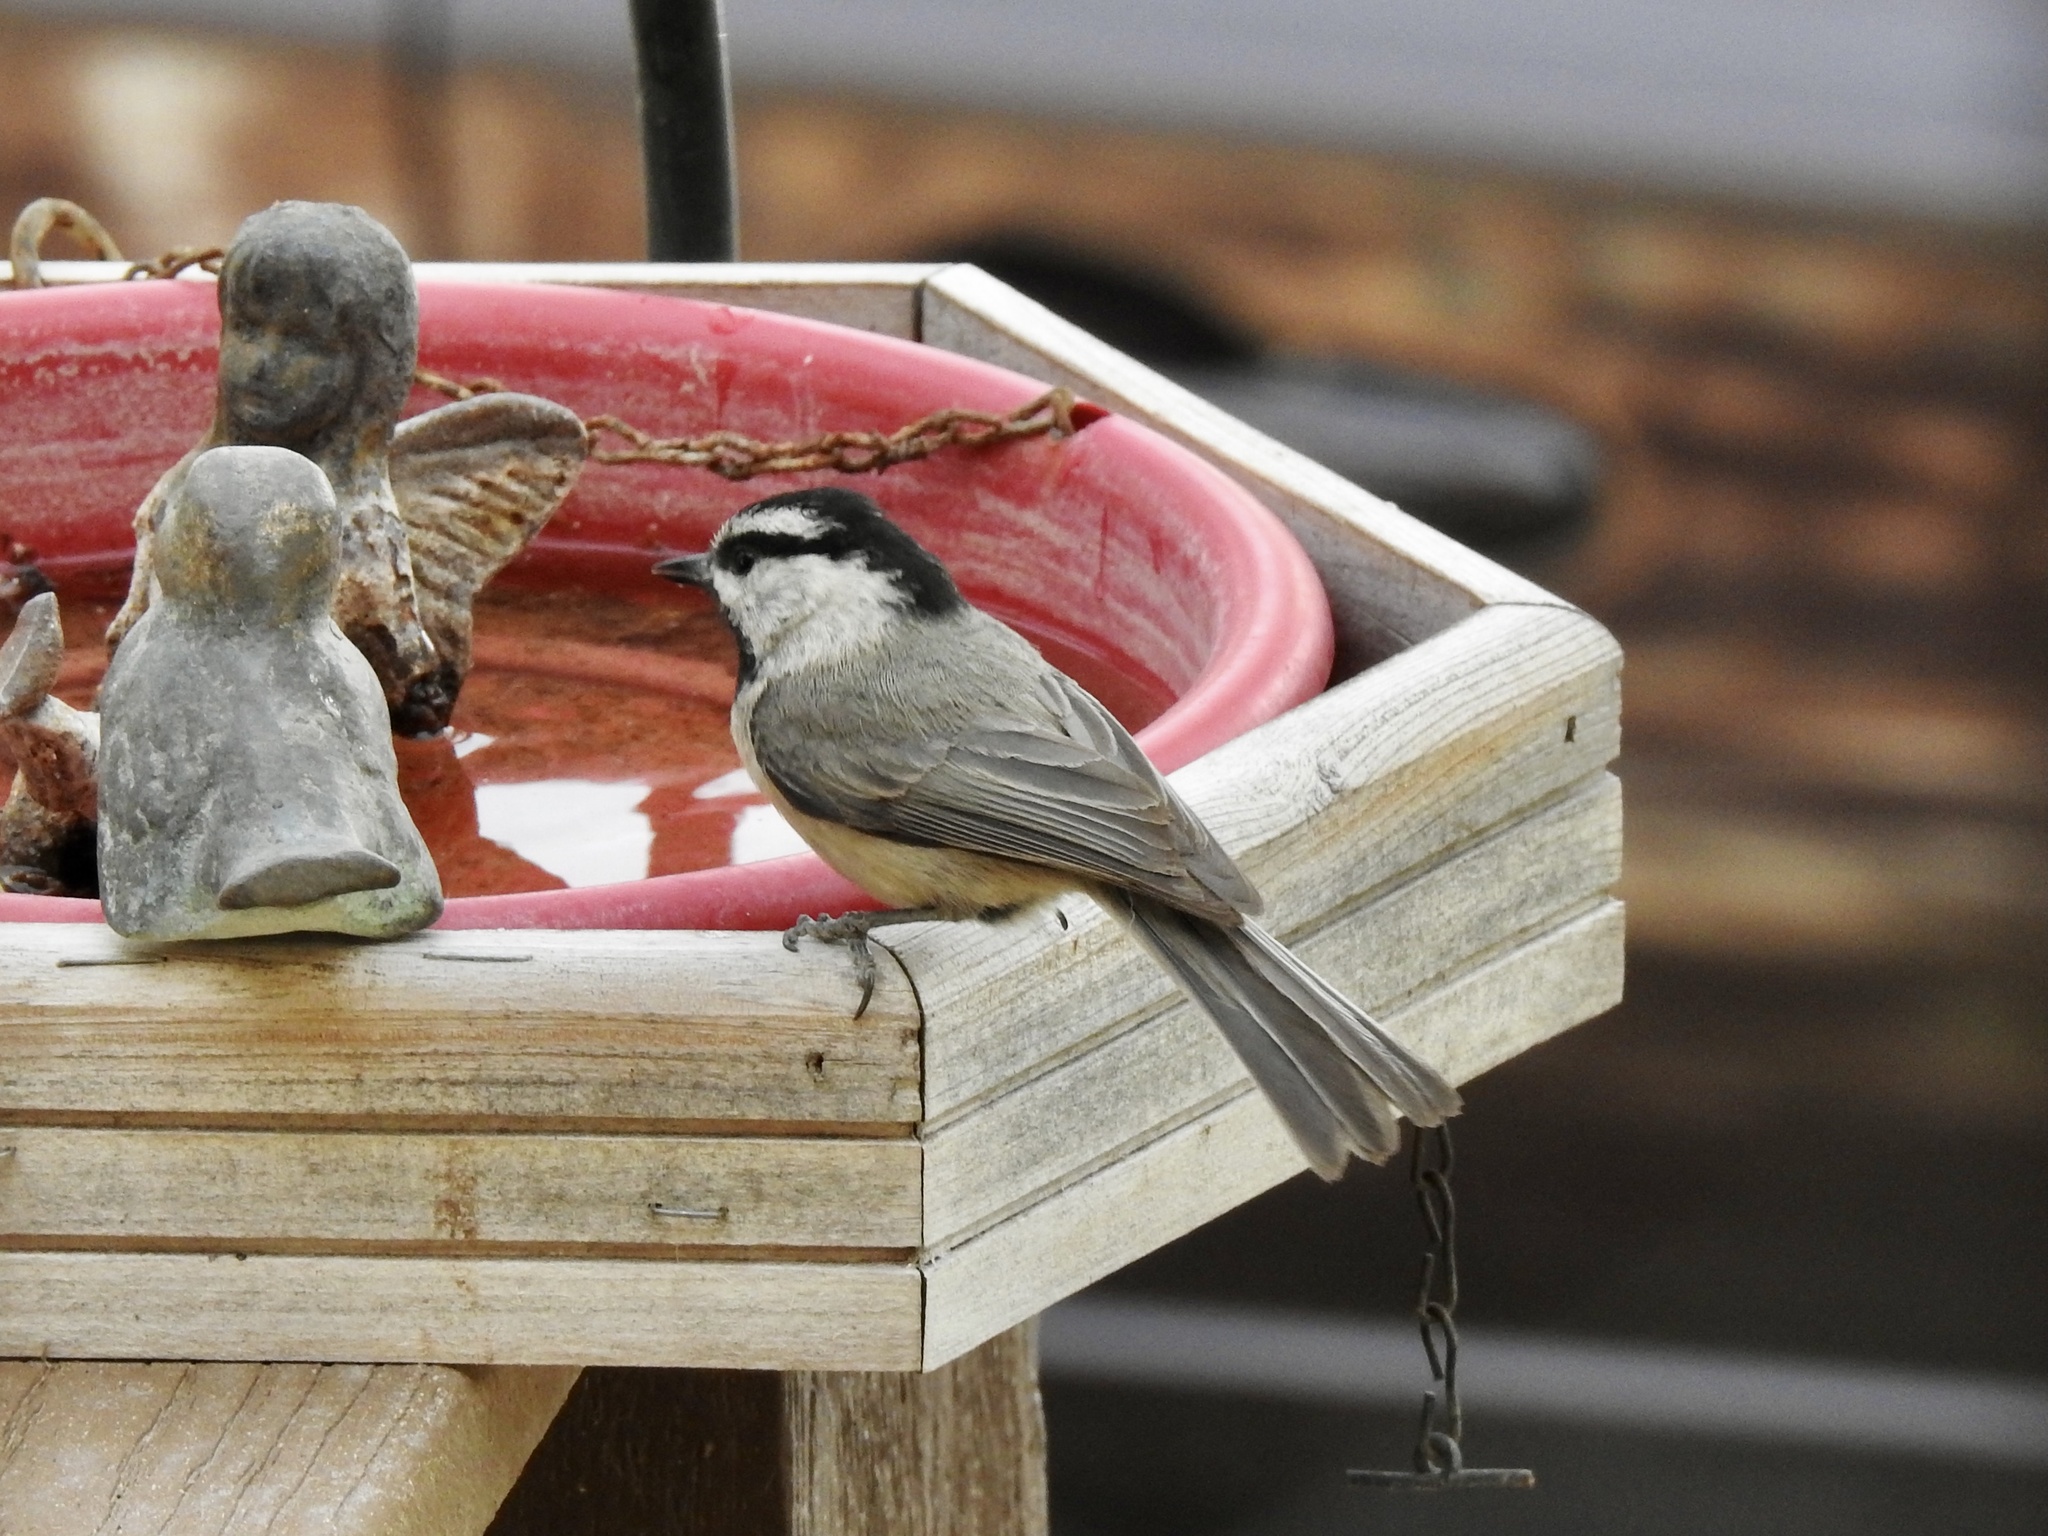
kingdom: Animalia
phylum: Chordata
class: Aves
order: Passeriformes
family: Paridae
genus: Poecile
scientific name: Poecile gambeli
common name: Mountain chickadee
